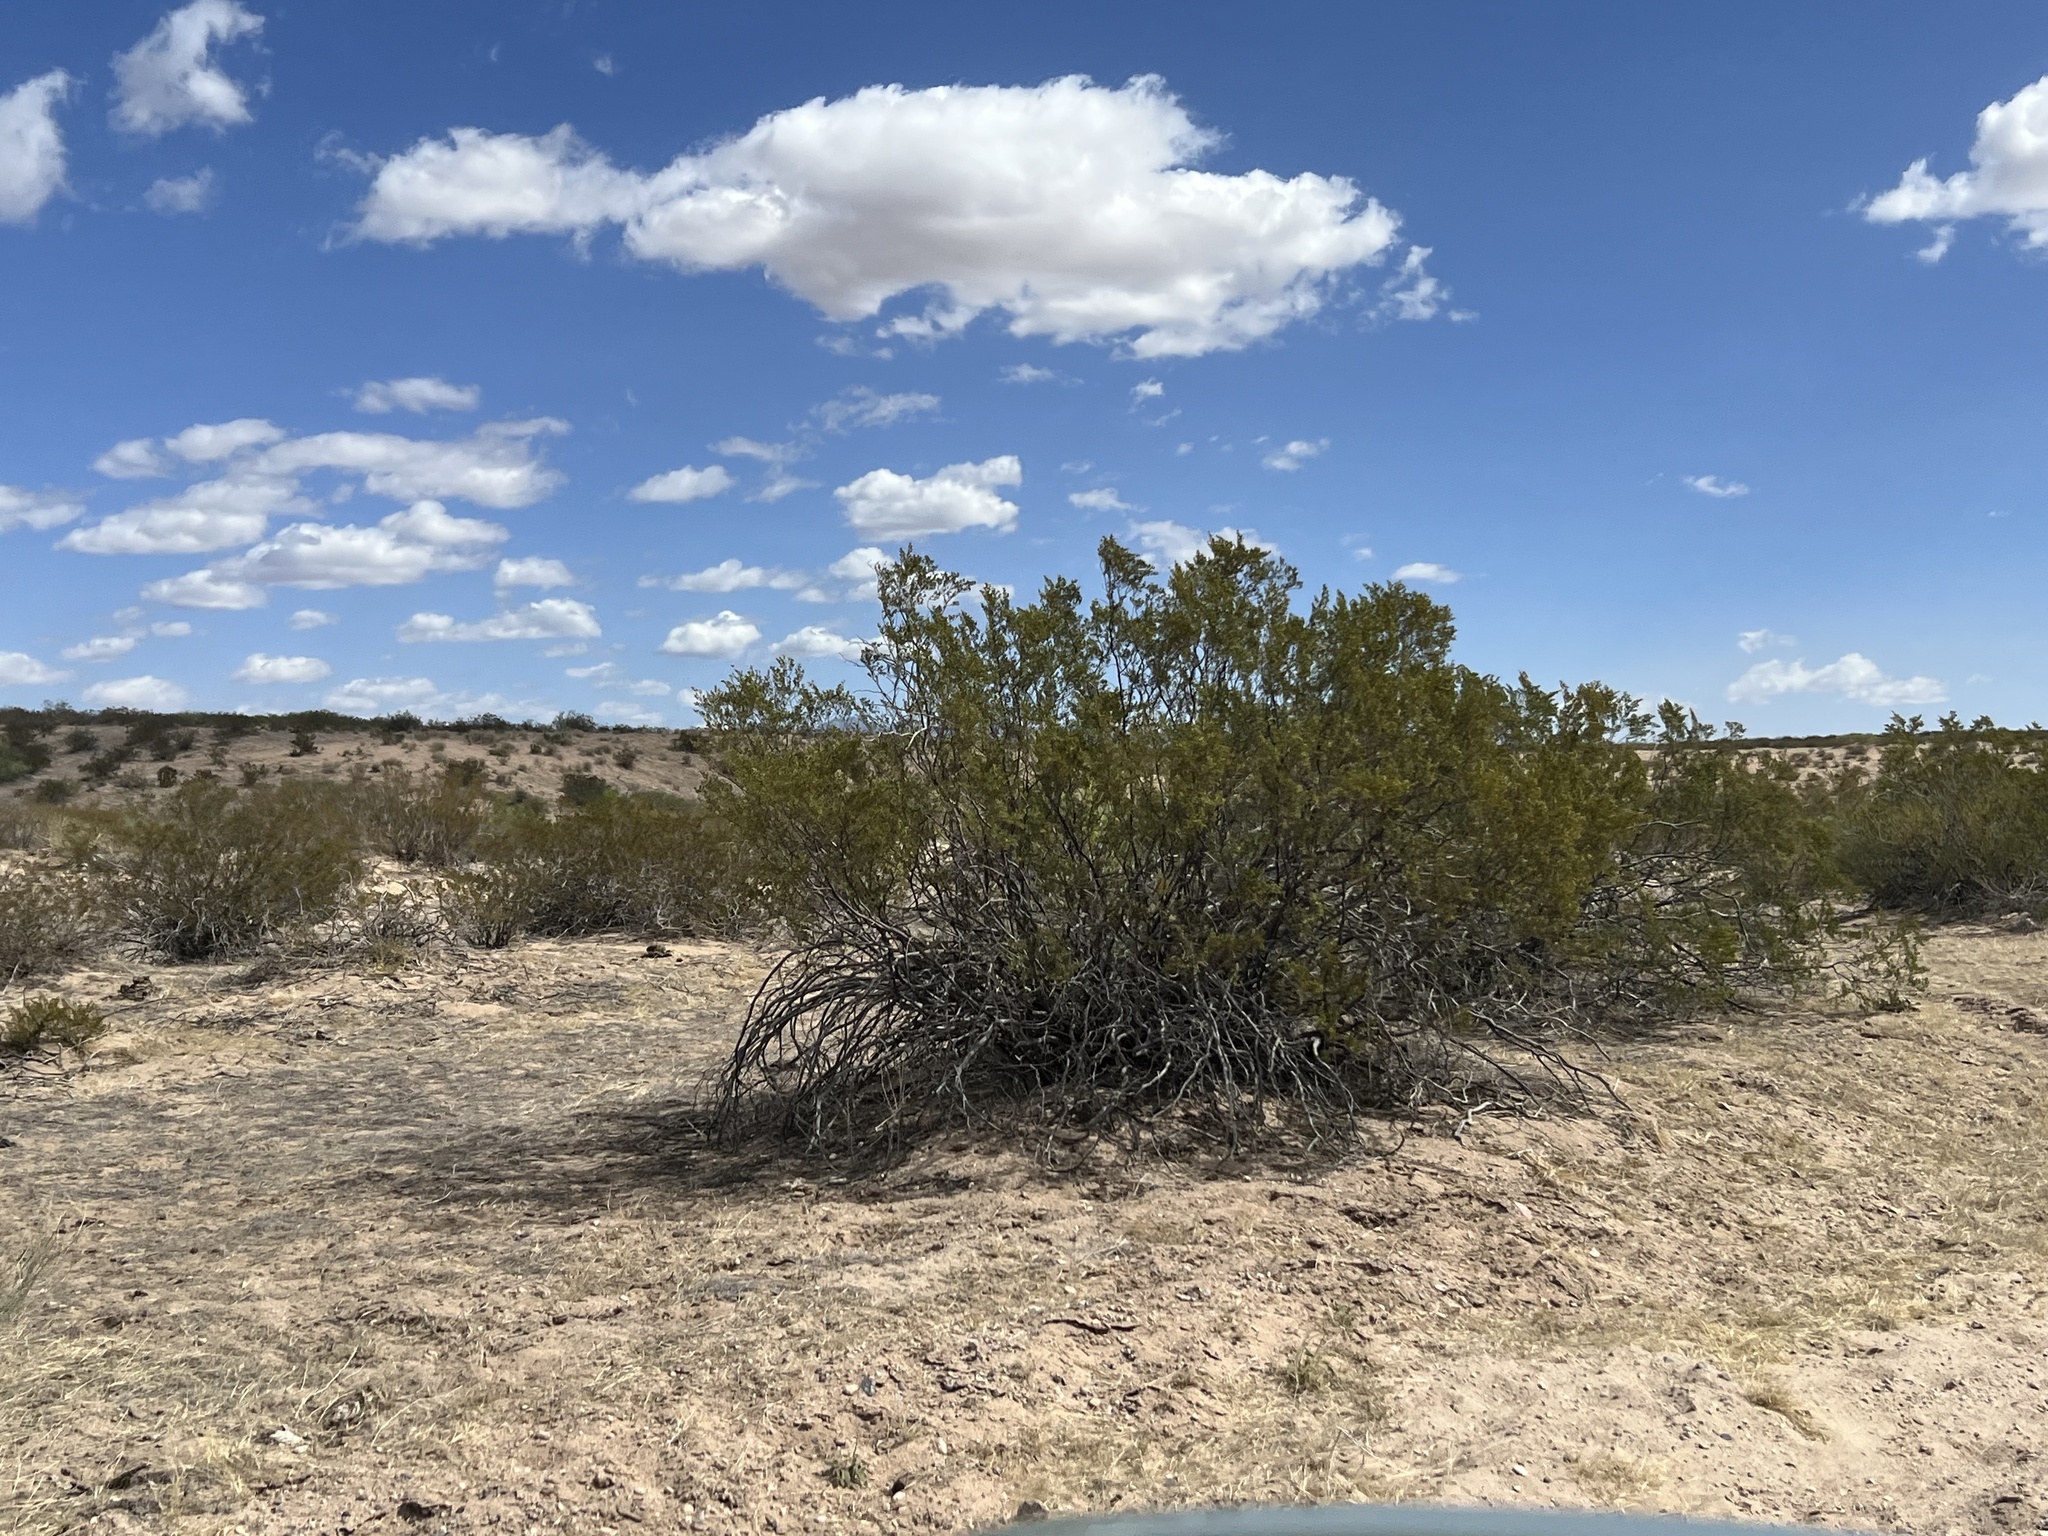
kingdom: Plantae
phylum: Tracheophyta
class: Magnoliopsida
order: Zygophyllales
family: Zygophyllaceae
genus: Larrea
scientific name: Larrea tridentata
